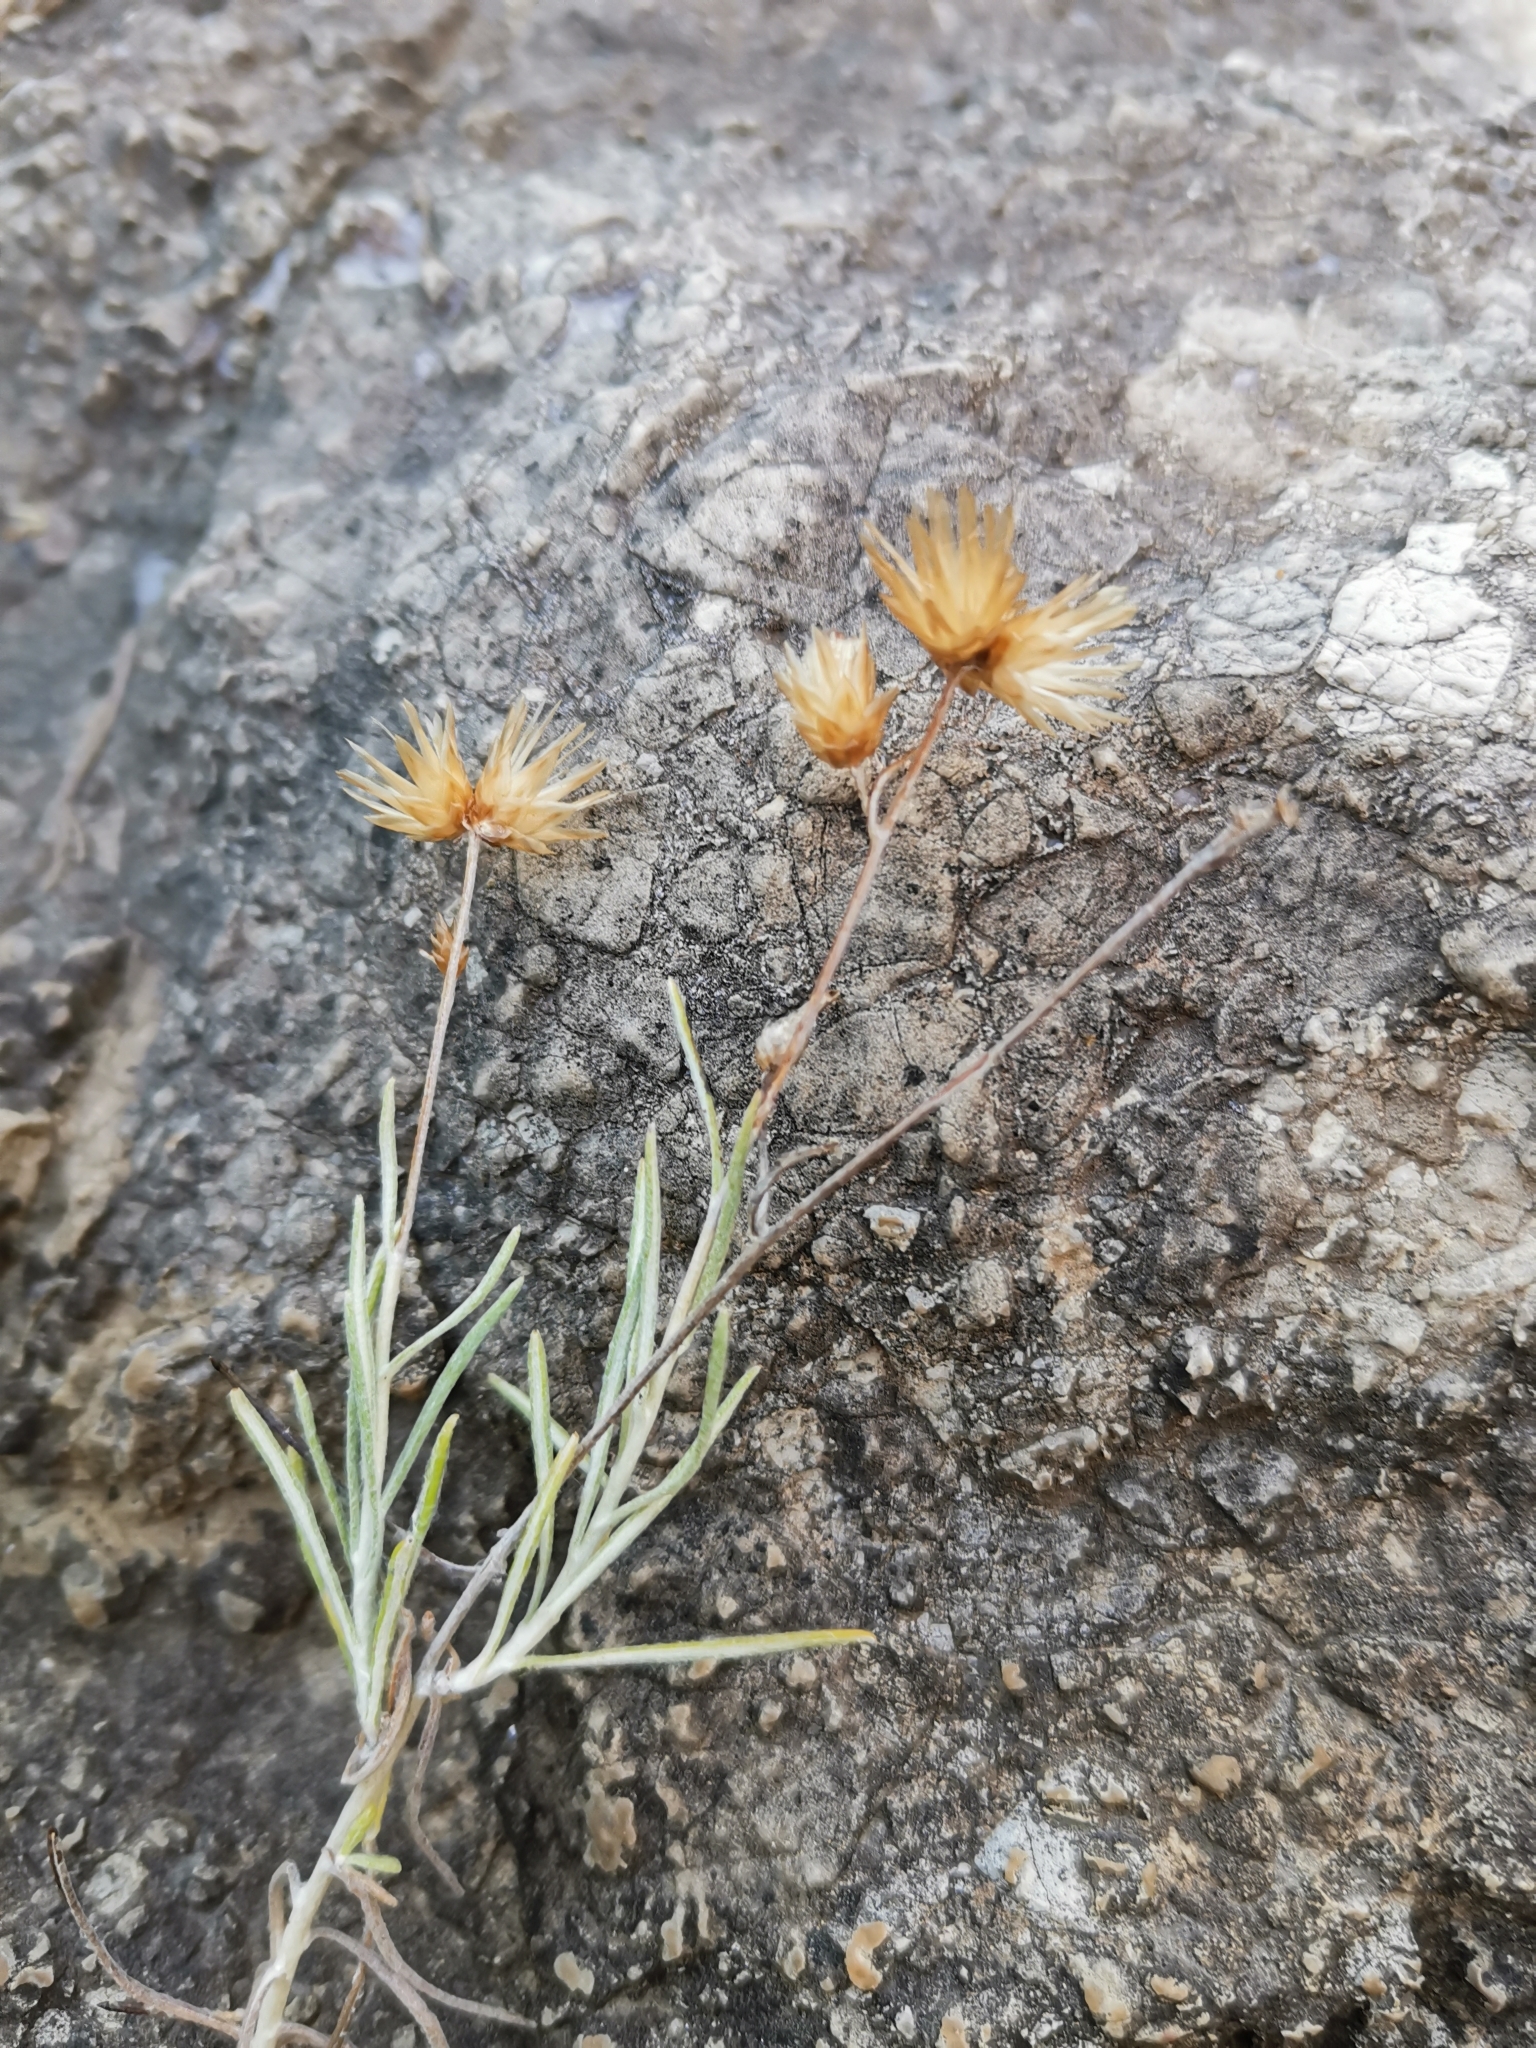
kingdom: Plantae
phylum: Tracheophyta
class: Magnoliopsida
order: Asterales
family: Asteraceae
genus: Phagnalon
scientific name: Phagnalon sordidum
